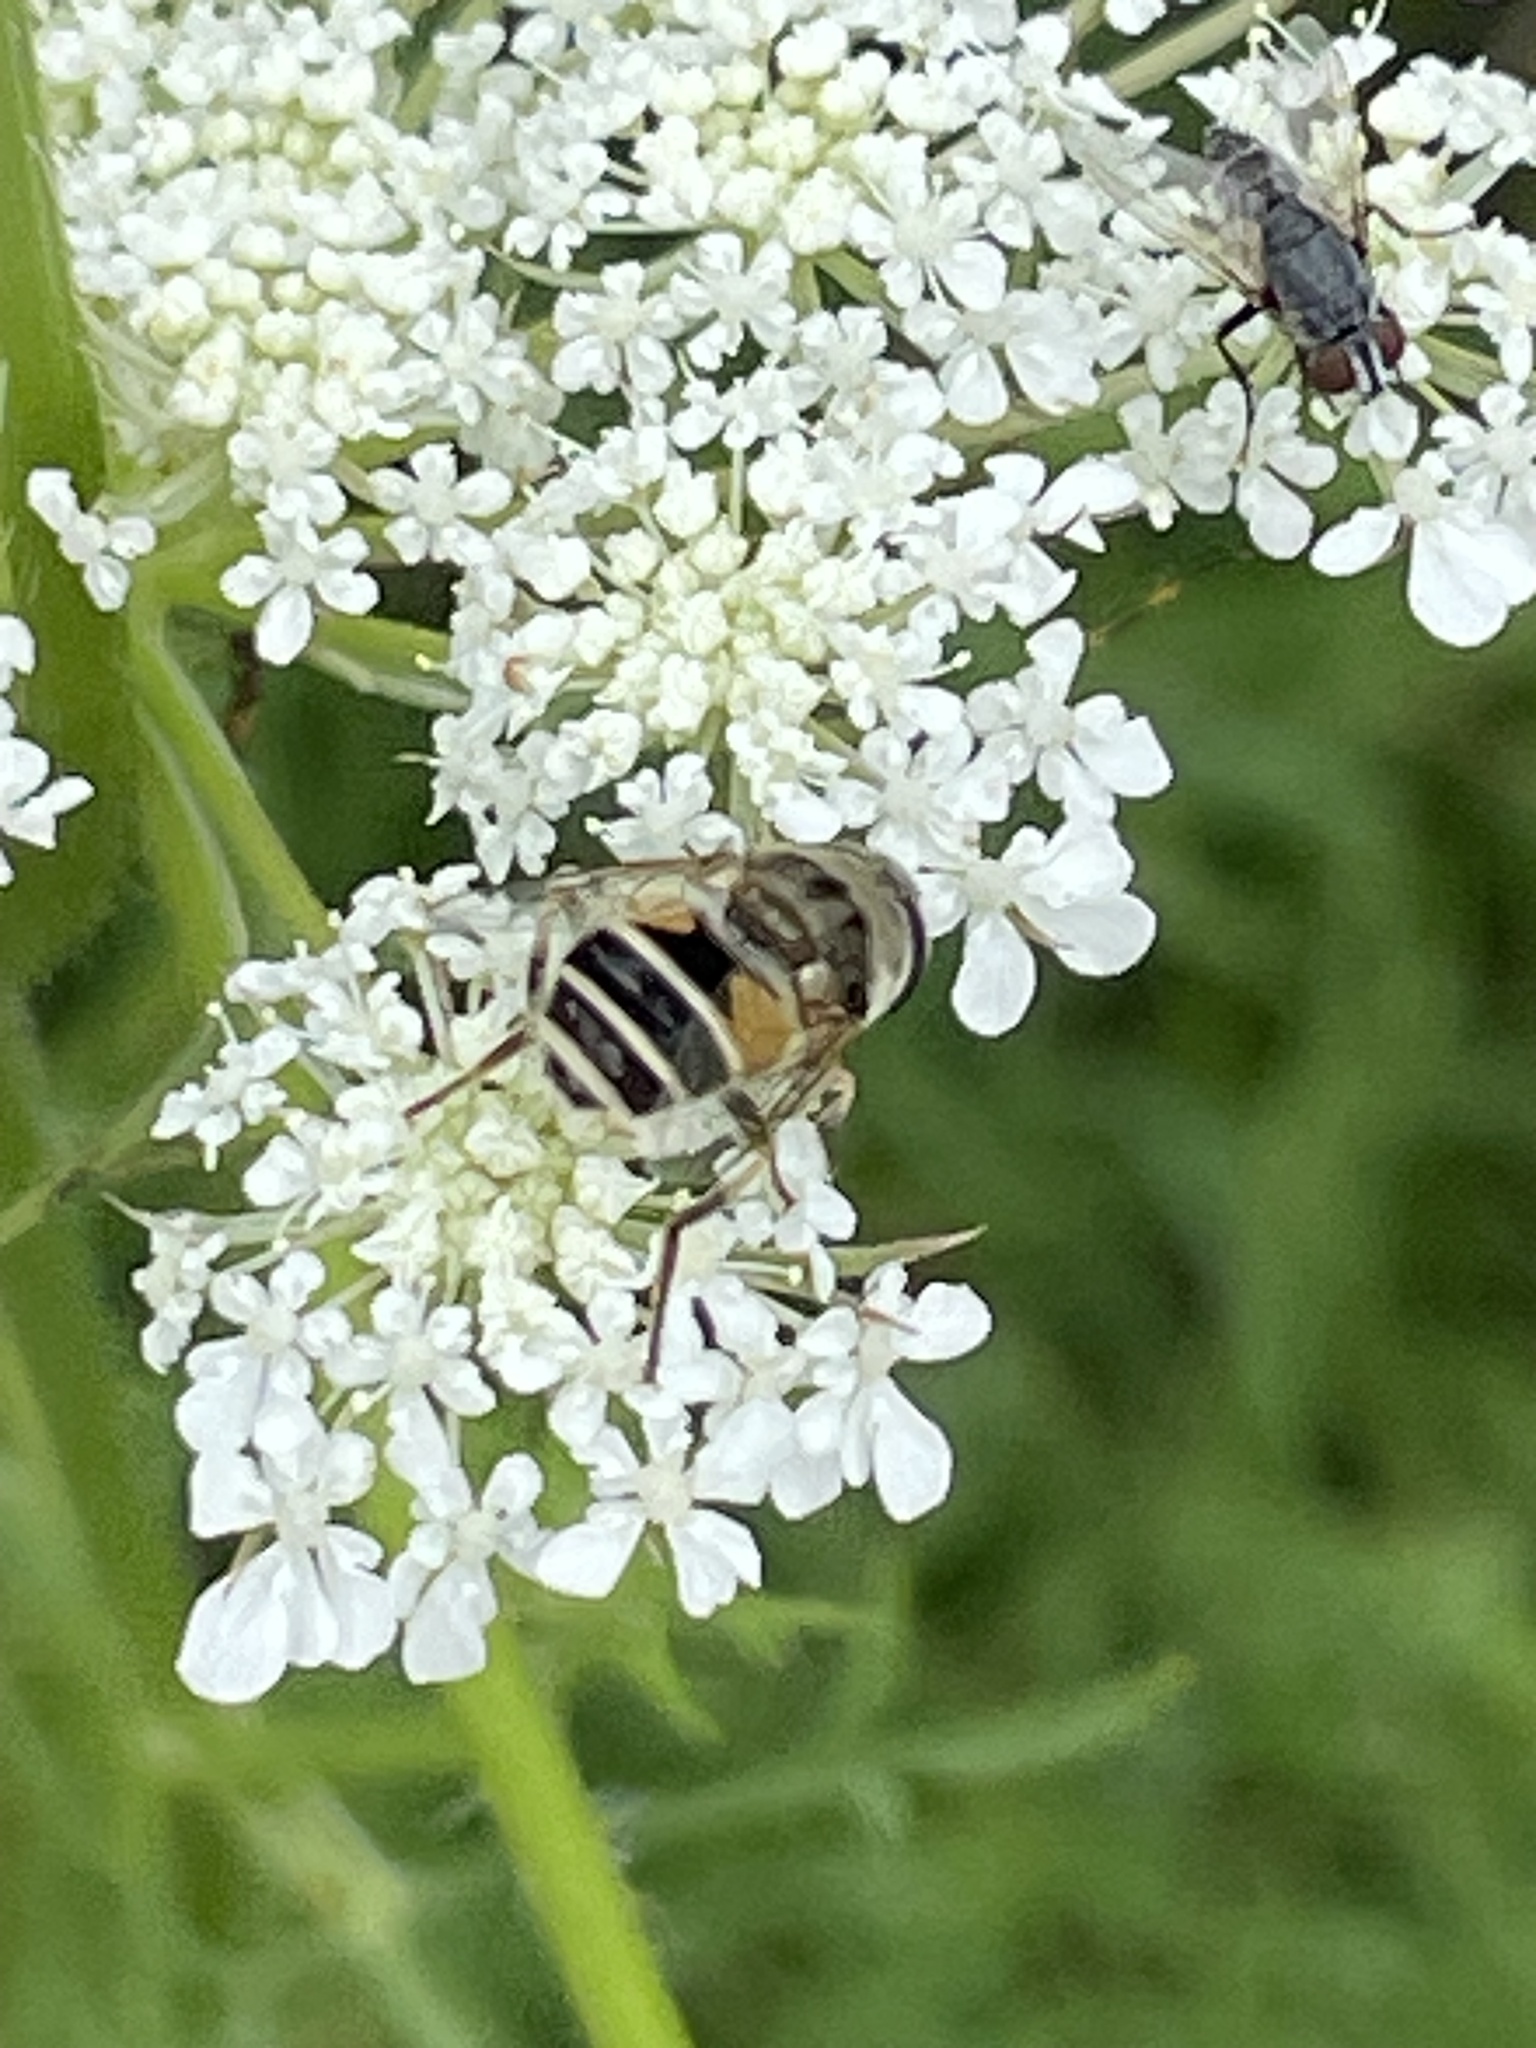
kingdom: Animalia
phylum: Arthropoda
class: Insecta
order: Diptera
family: Syrphidae
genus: Eristalis
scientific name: Eristalis arbustorum
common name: Hover fly
